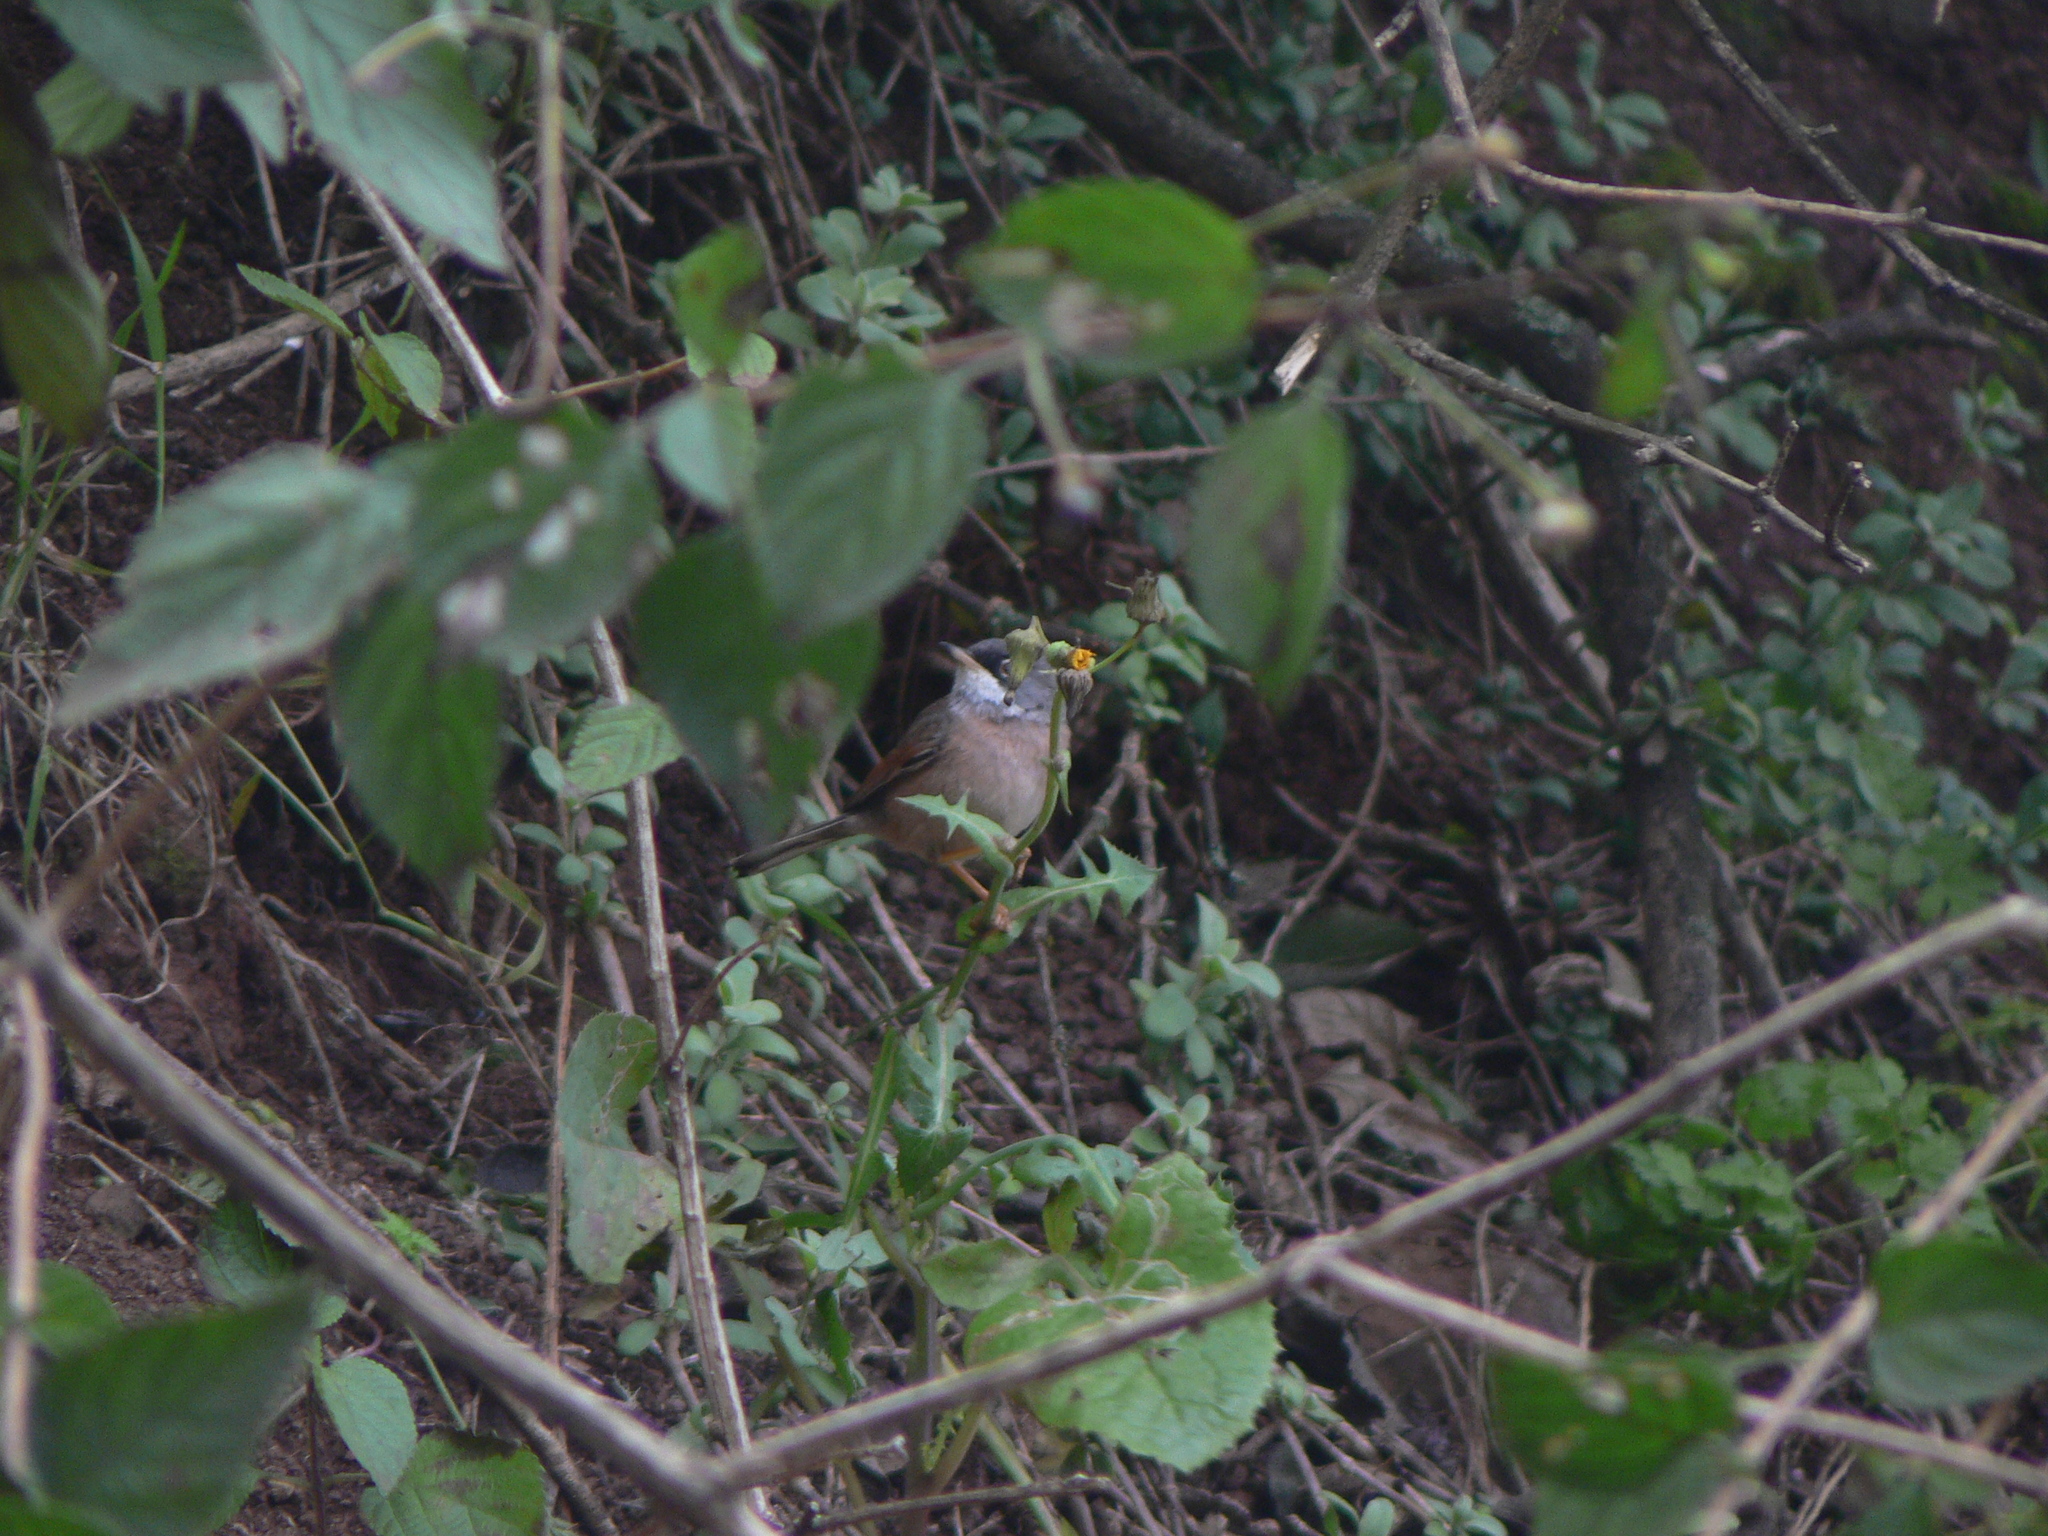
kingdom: Animalia
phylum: Chordata
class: Aves
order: Passeriformes
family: Sylviidae
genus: Sylvia
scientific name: Sylvia conspicillata
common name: Spectacled warbler
